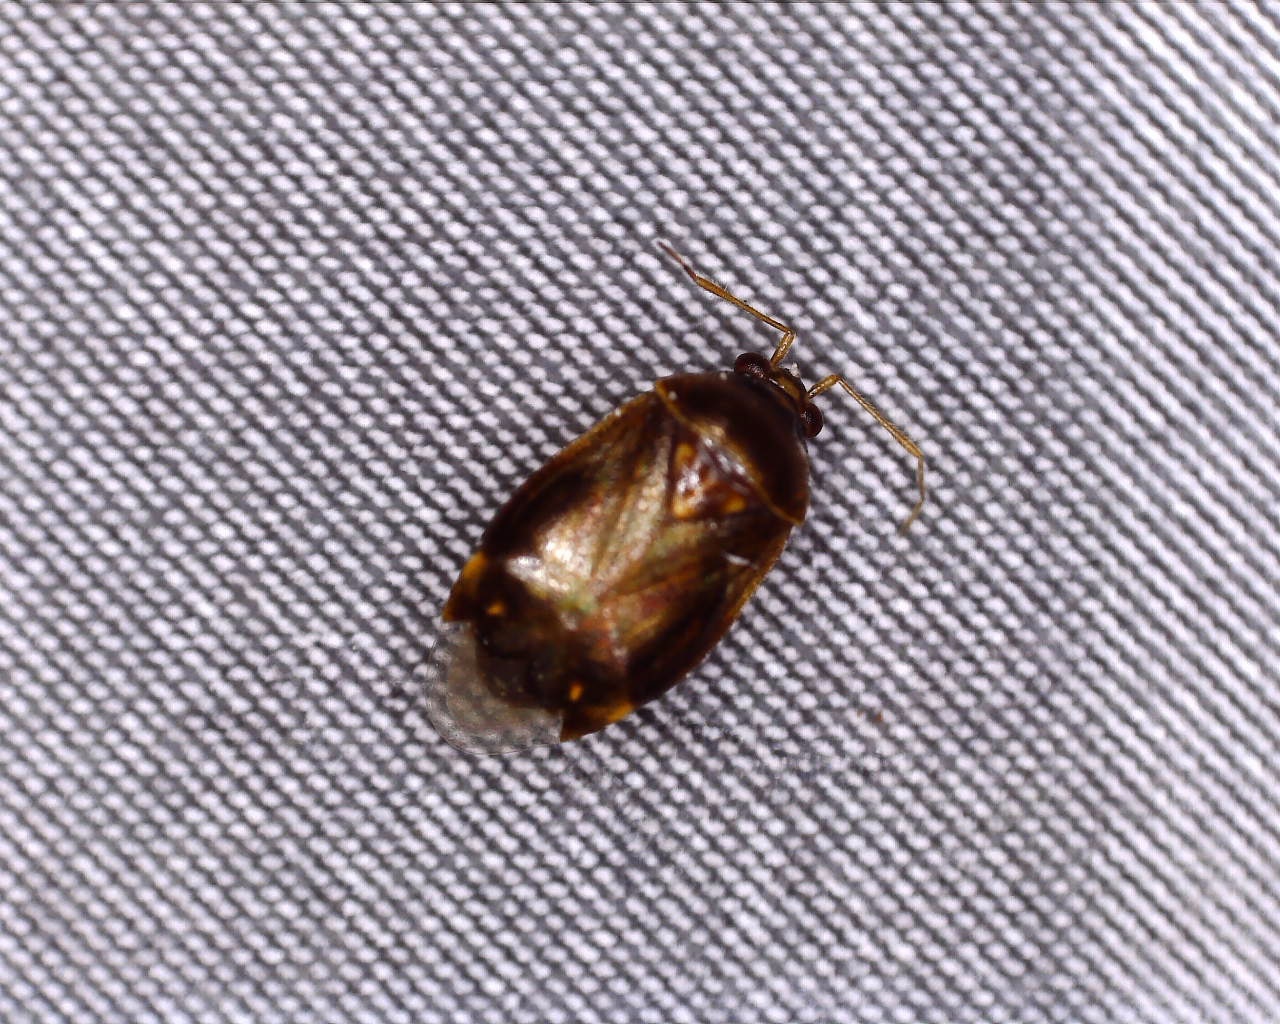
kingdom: Animalia
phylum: Arthropoda
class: Insecta
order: Hemiptera
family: Miridae
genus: Deraeocoris
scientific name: Deraeocoris lutescens
